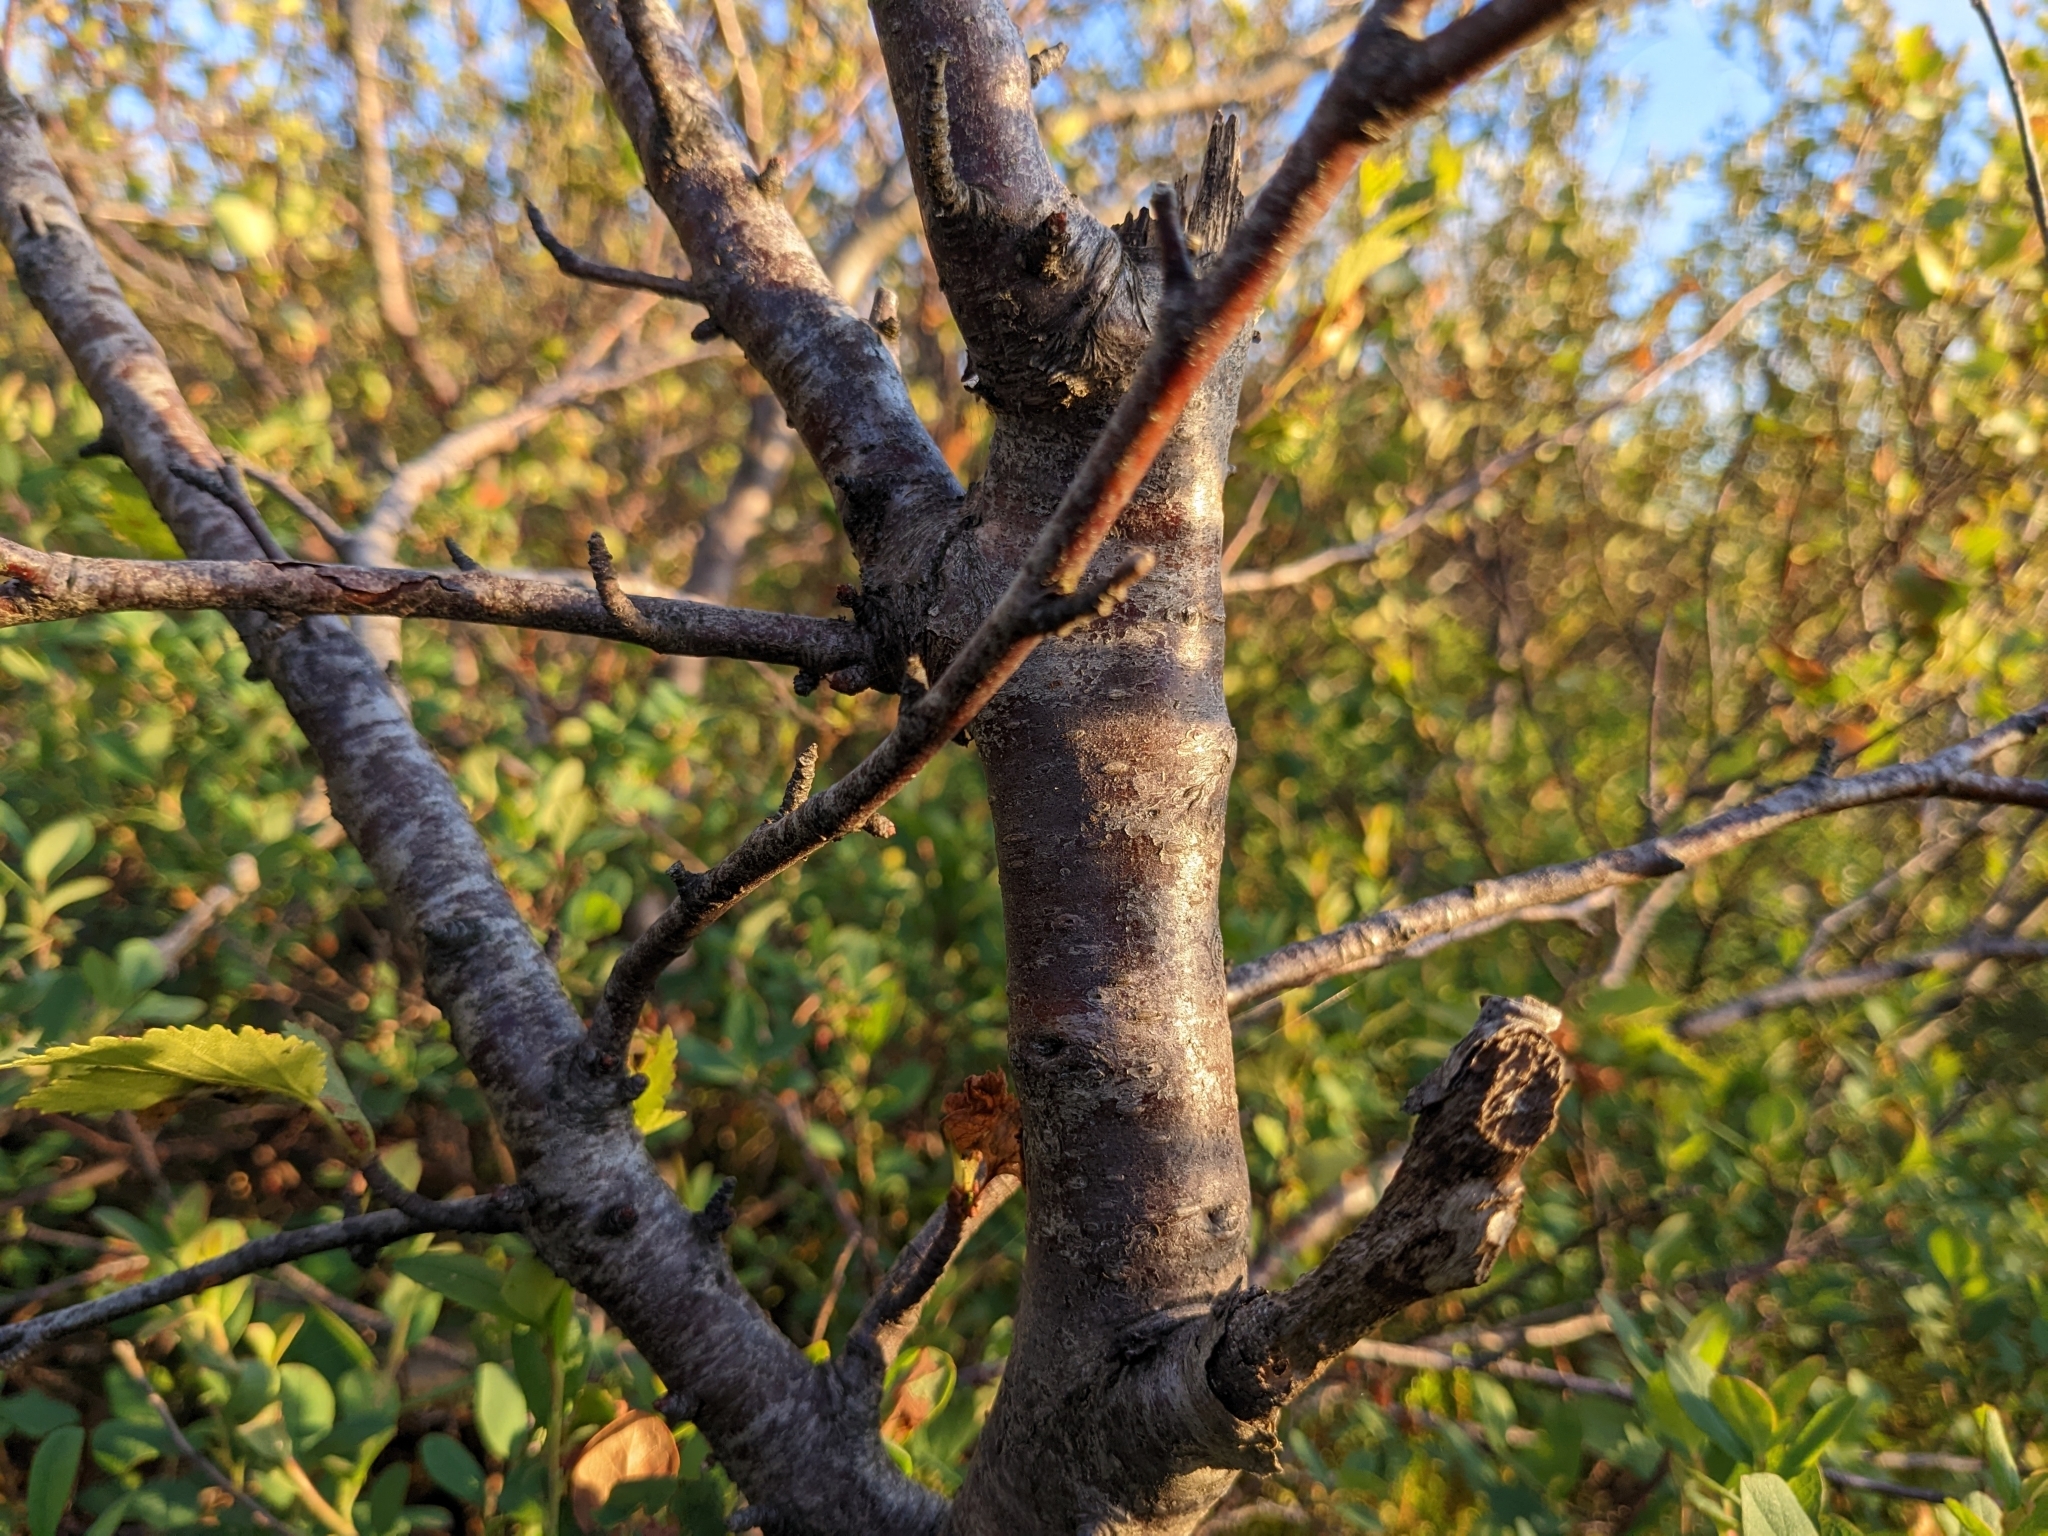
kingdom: Plantae
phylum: Tracheophyta
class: Magnoliopsida
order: Fagales
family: Betulaceae
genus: Betula
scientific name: Betula pubescens
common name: Downy birch
